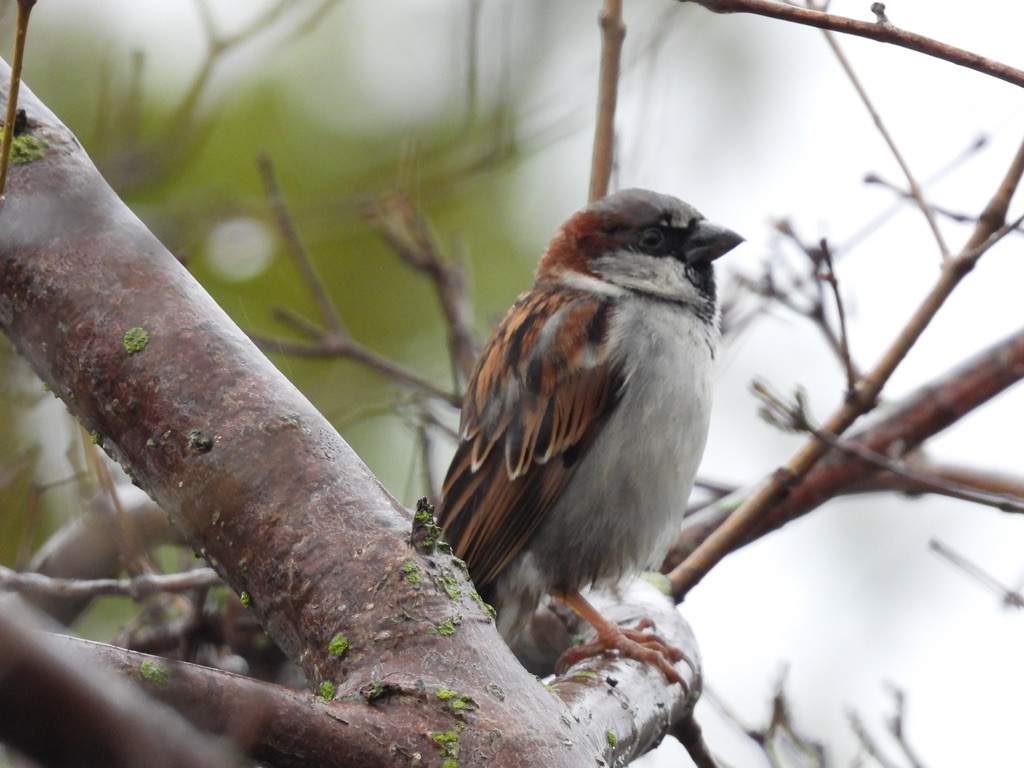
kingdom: Animalia
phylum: Chordata
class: Aves
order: Passeriformes
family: Passeridae
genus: Passer
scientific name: Passer domesticus
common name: House sparrow
